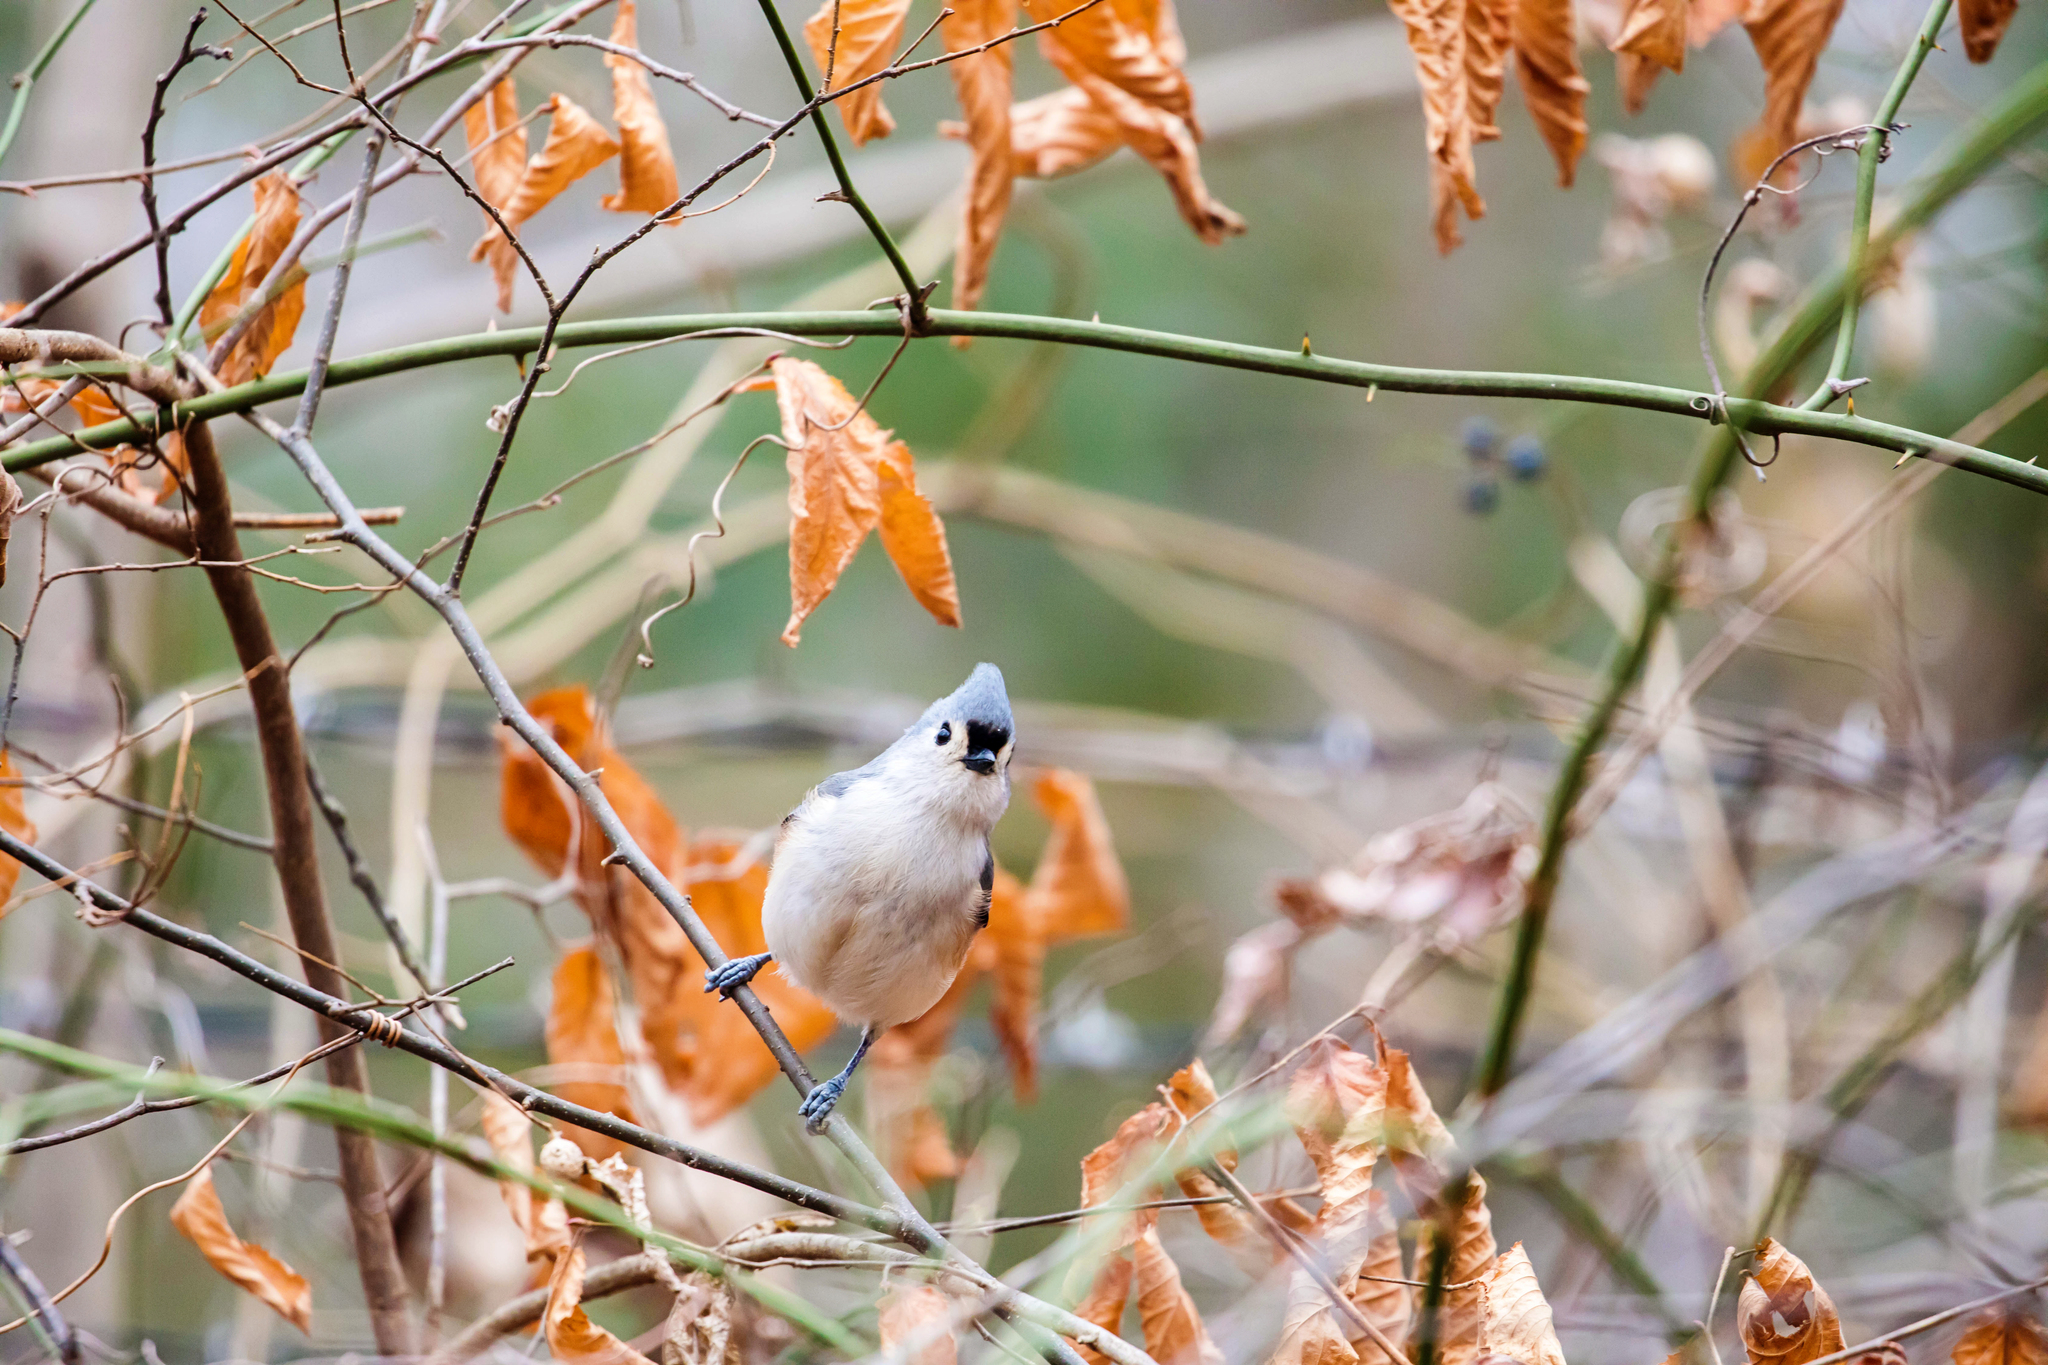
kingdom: Animalia
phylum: Chordata
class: Aves
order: Passeriformes
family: Paridae
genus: Baeolophus
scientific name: Baeolophus bicolor
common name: Tufted titmouse
